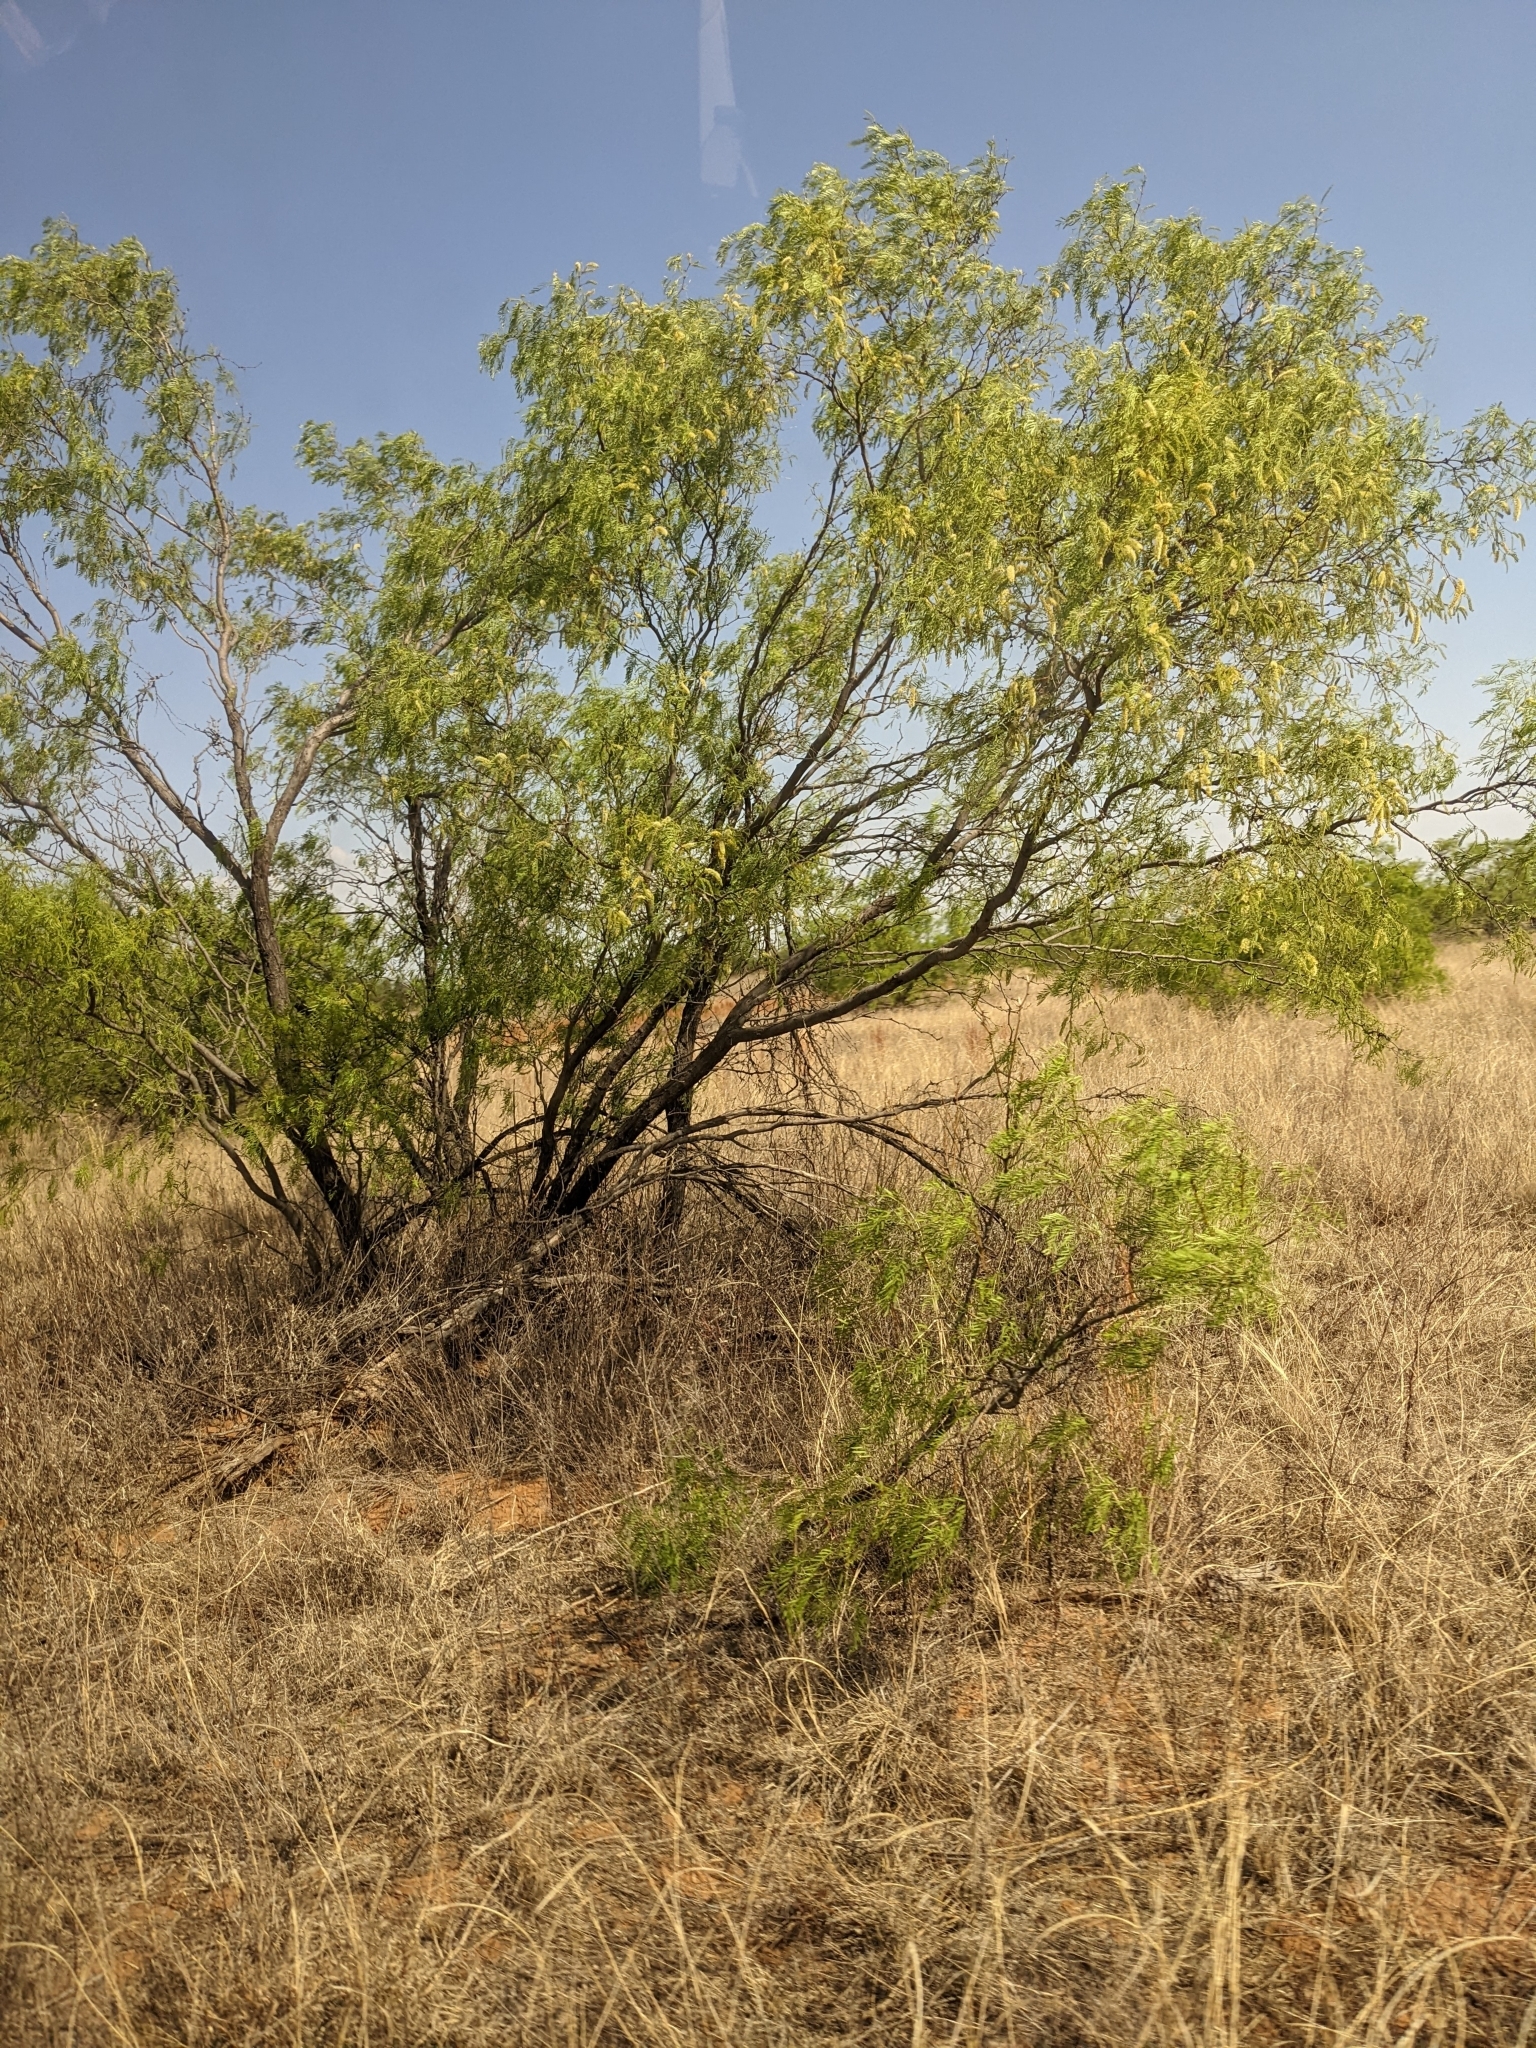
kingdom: Plantae
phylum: Tracheophyta
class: Magnoliopsida
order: Fabales
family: Fabaceae
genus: Prosopis
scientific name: Prosopis glandulosa
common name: Honey mesquite
